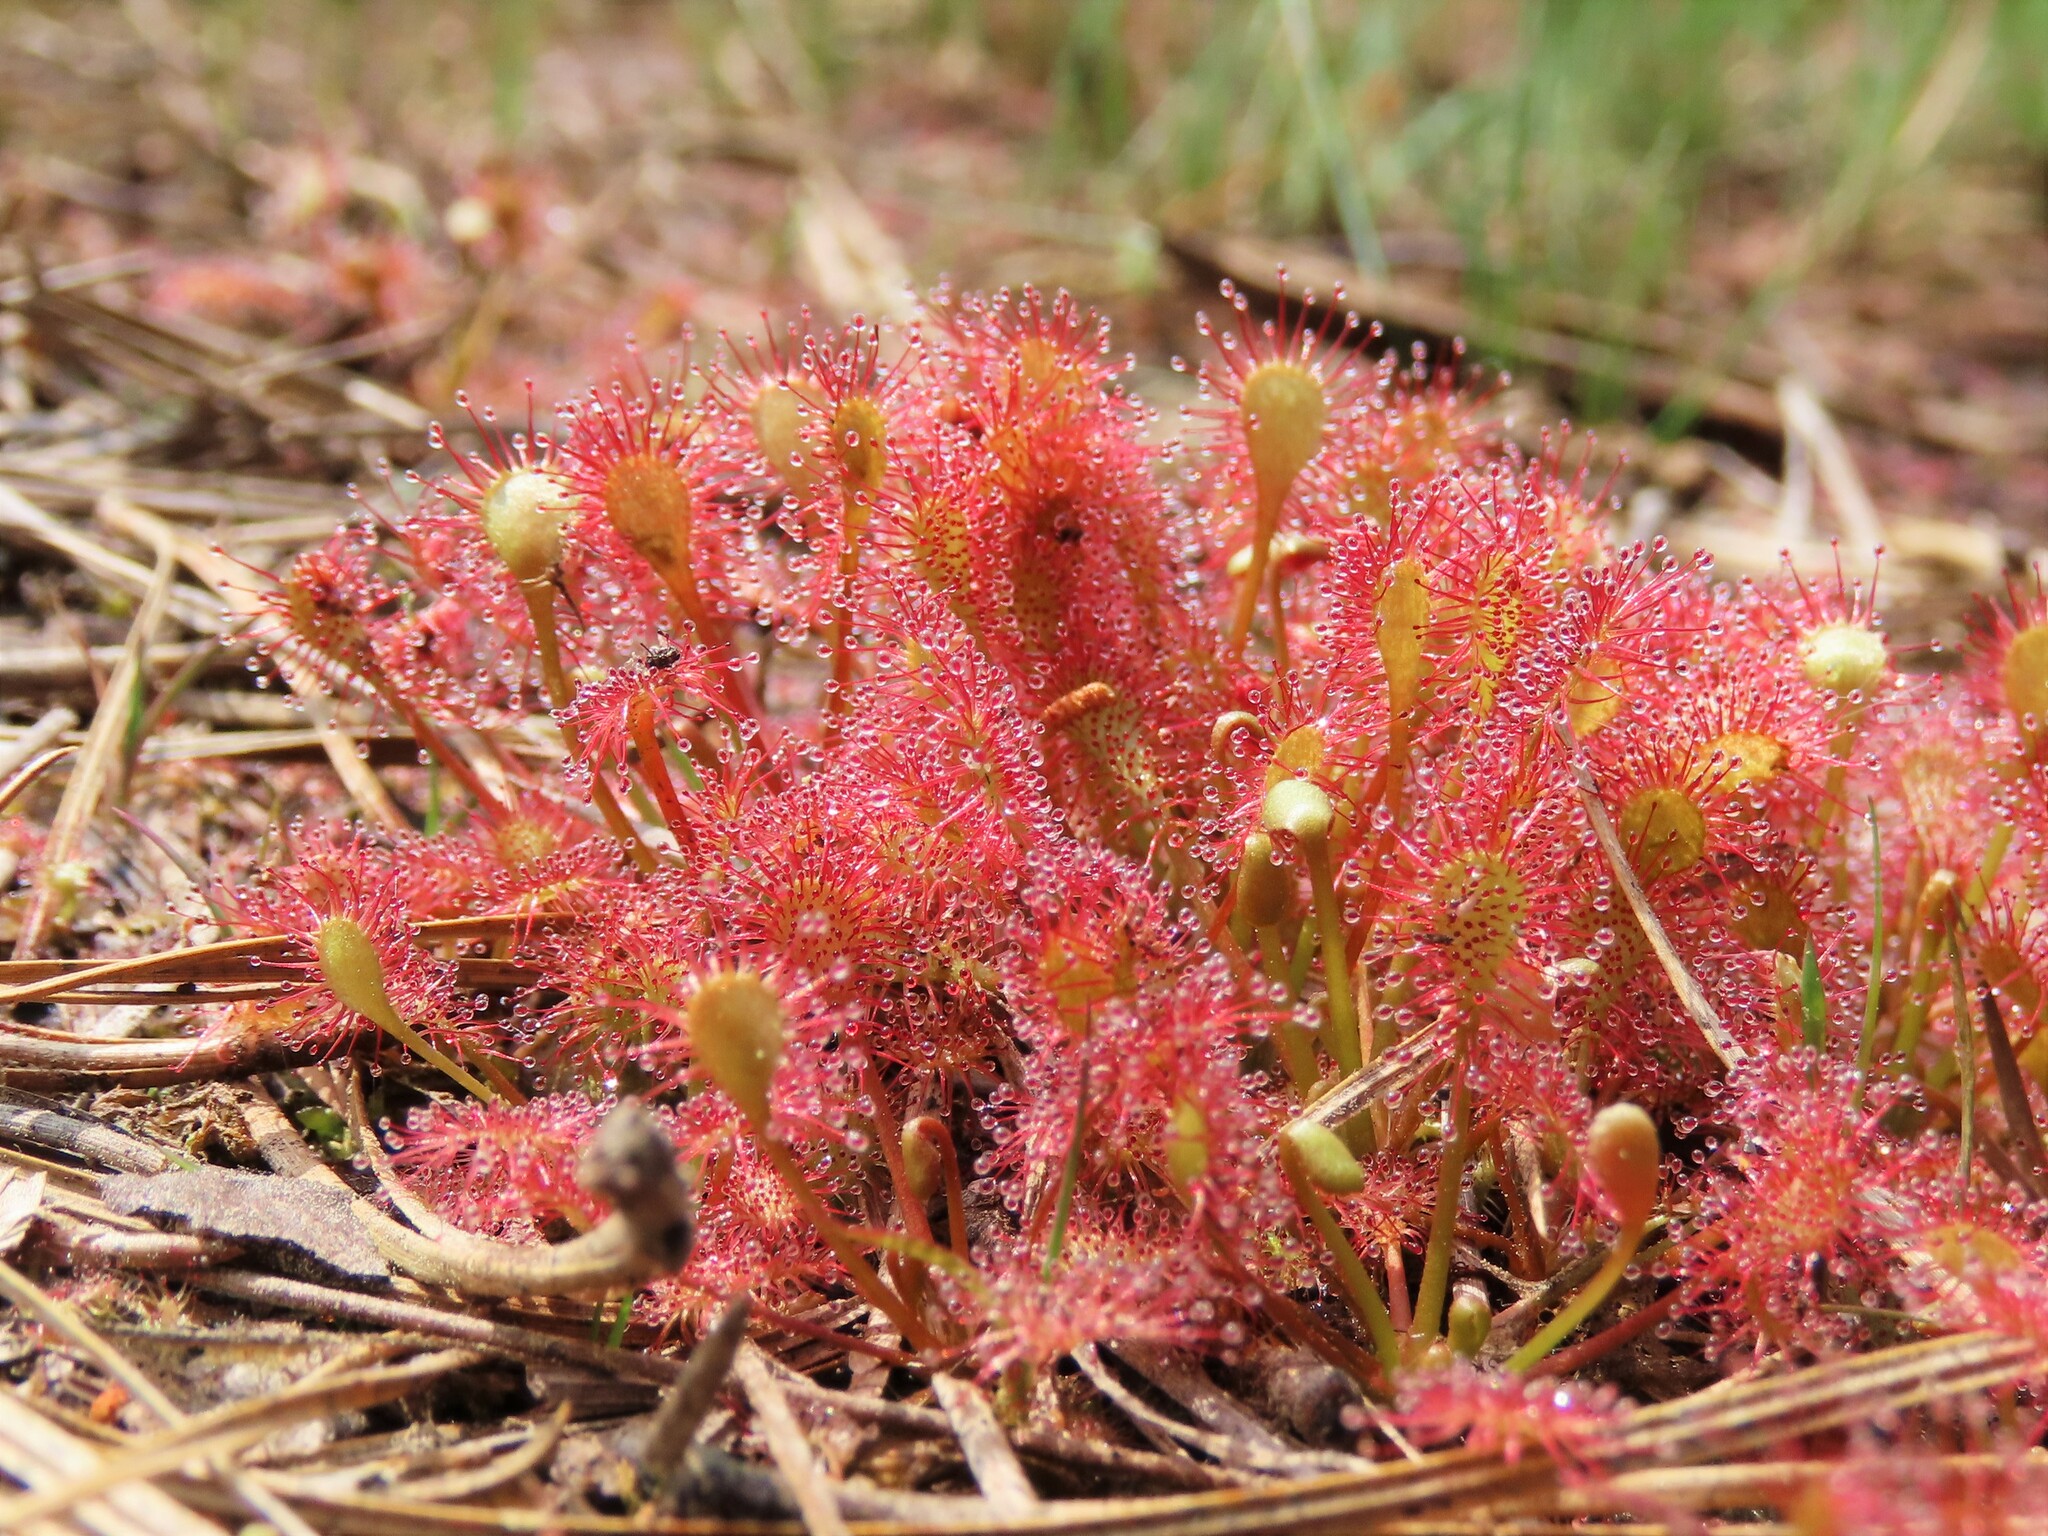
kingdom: Plantae
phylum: Tracheophyta
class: Magnoliopsida
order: Caryophyllales
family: Droseraceae
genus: Drosera
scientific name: Drosera intermedia
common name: Oblong-leaved sundew
